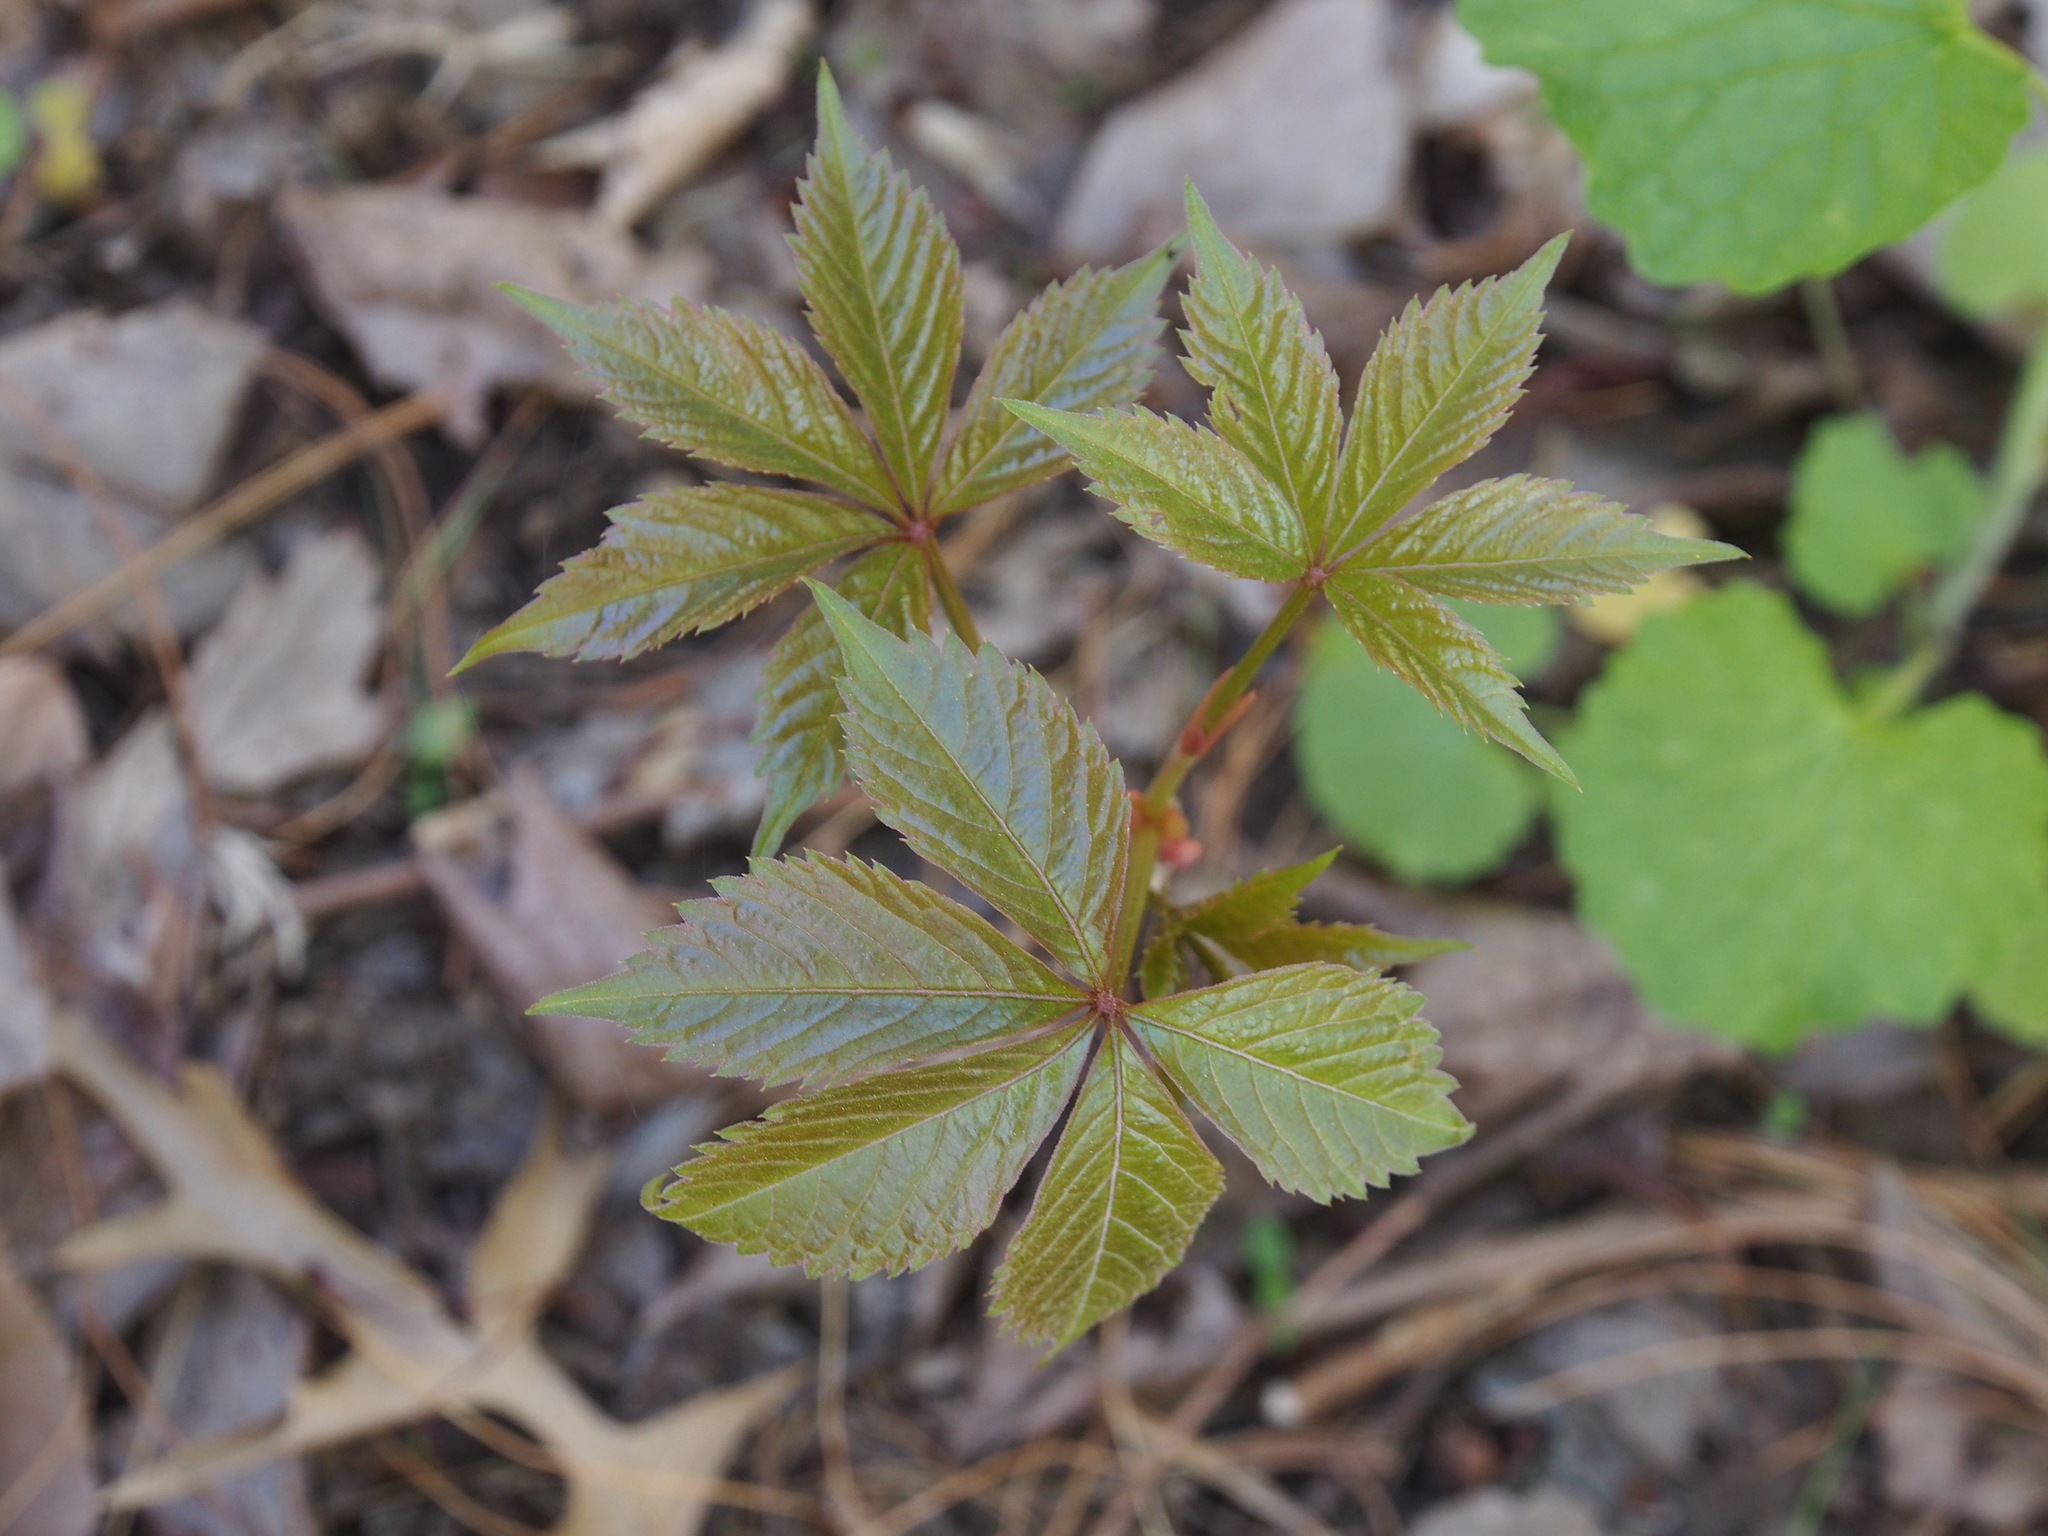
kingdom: Plantae
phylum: Tracheophyta
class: Magnoliopsida
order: Vitales
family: Vitaceae
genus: Parthenocissus
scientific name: Parthenocissus quinquefolia
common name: Virginia-creeper
